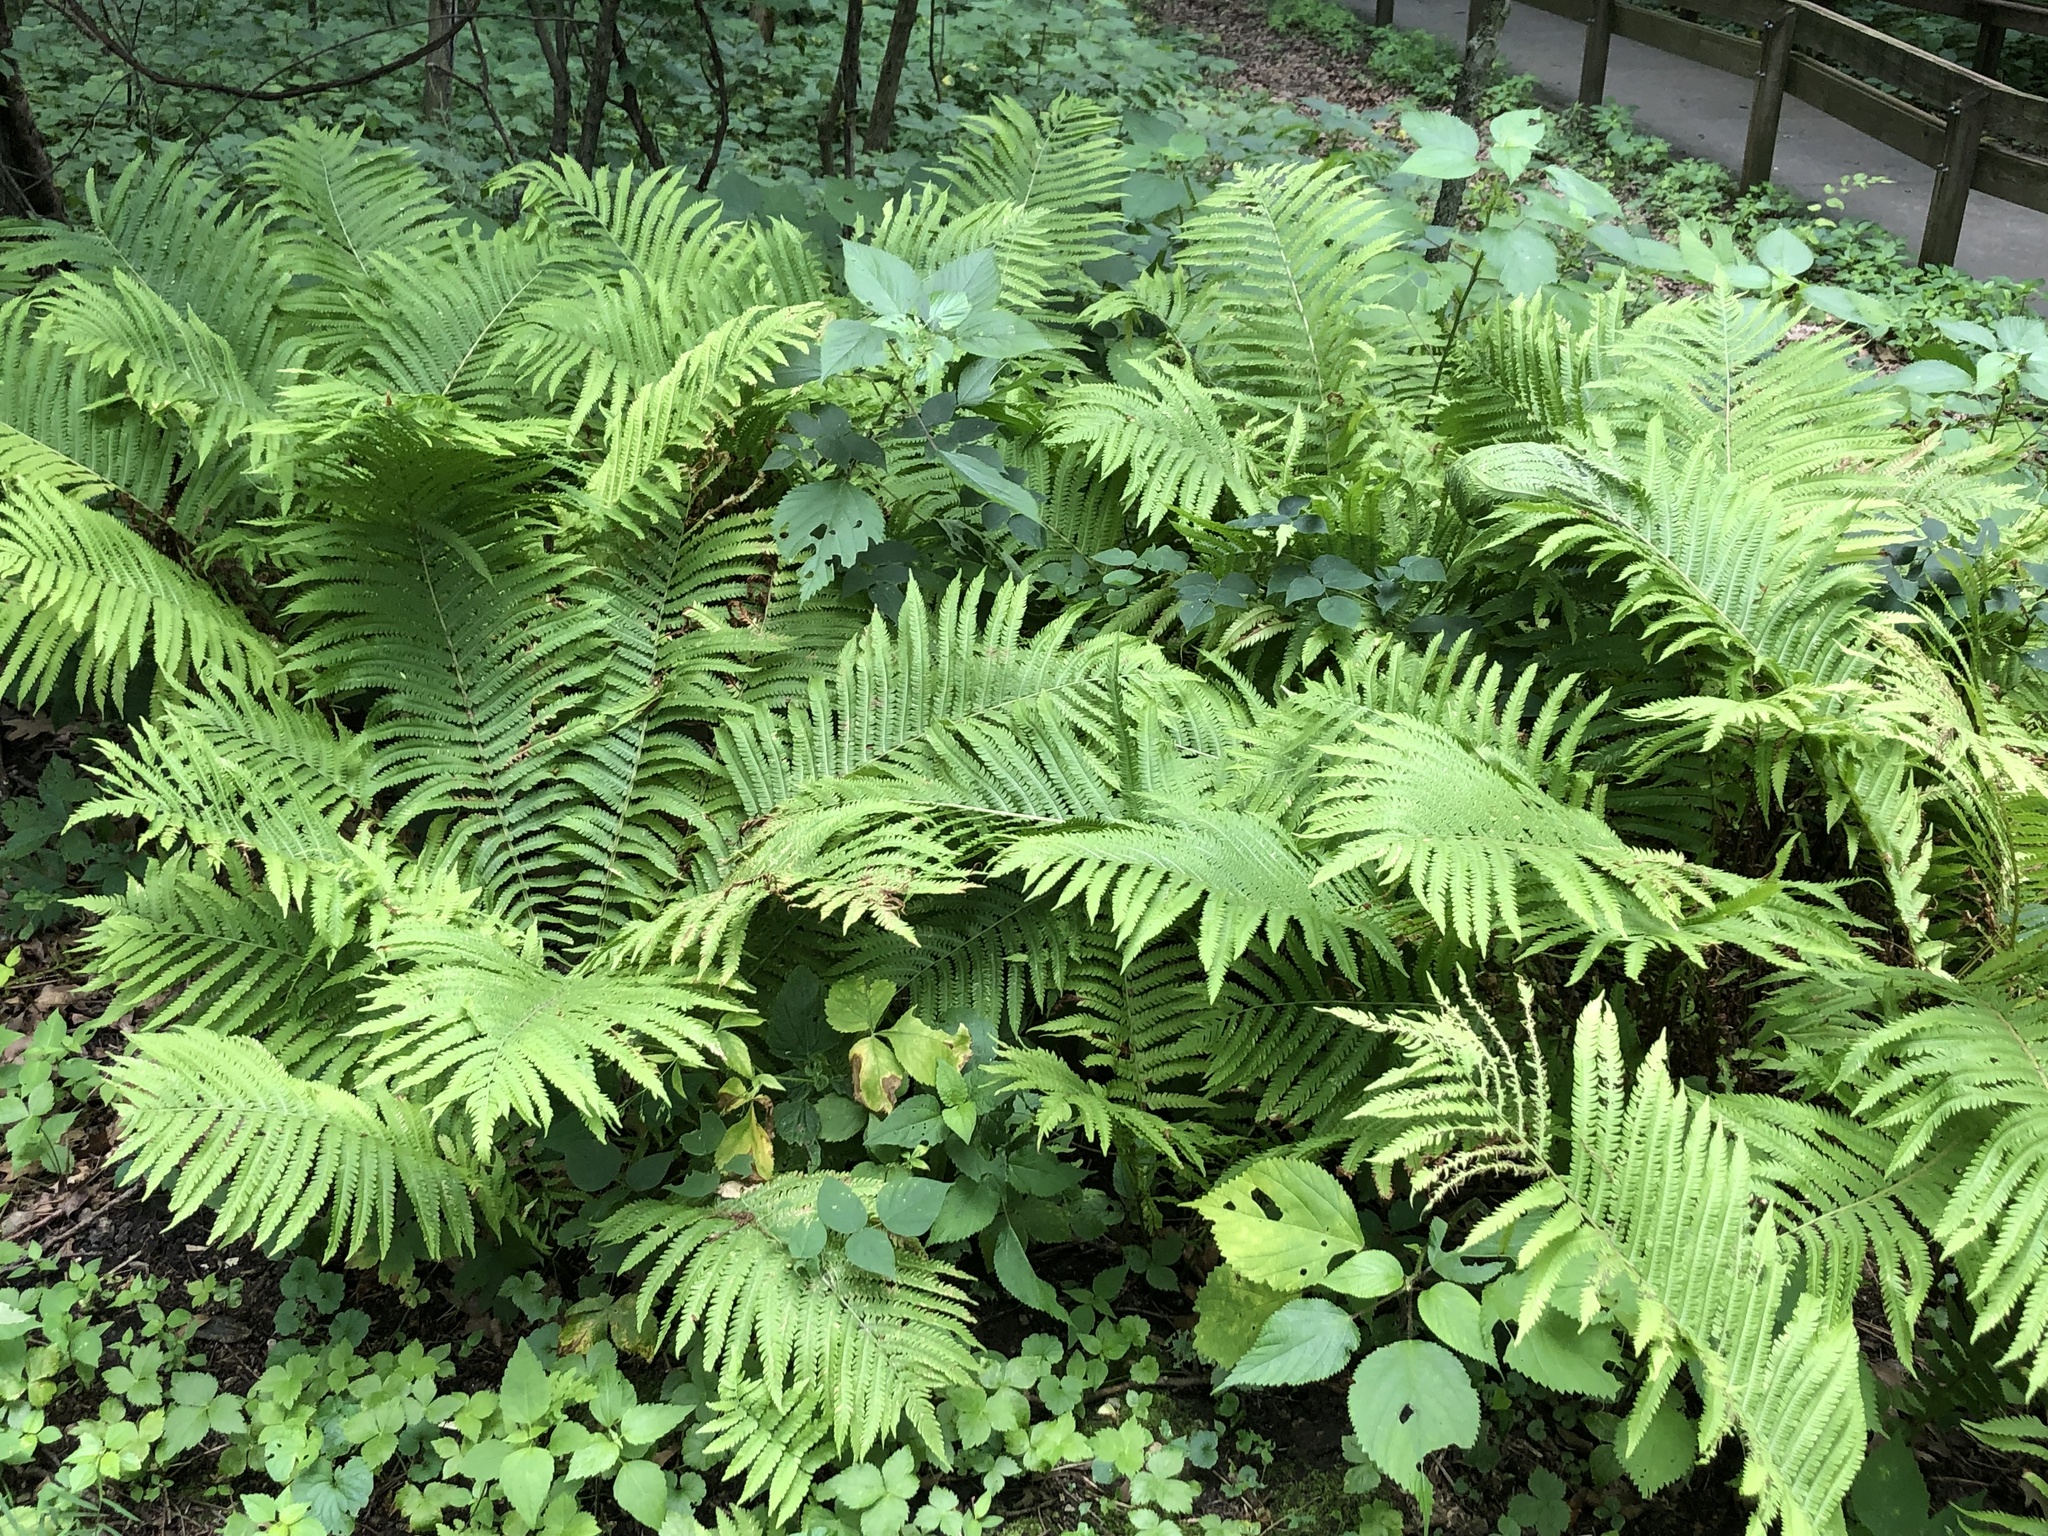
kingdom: Plantae
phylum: Tracheophyta
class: Polypodiopsida
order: Polypodiales
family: Onocleaceae
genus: Matteuccia
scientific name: Matteuccia struthiopteris
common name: Ostrich fern
